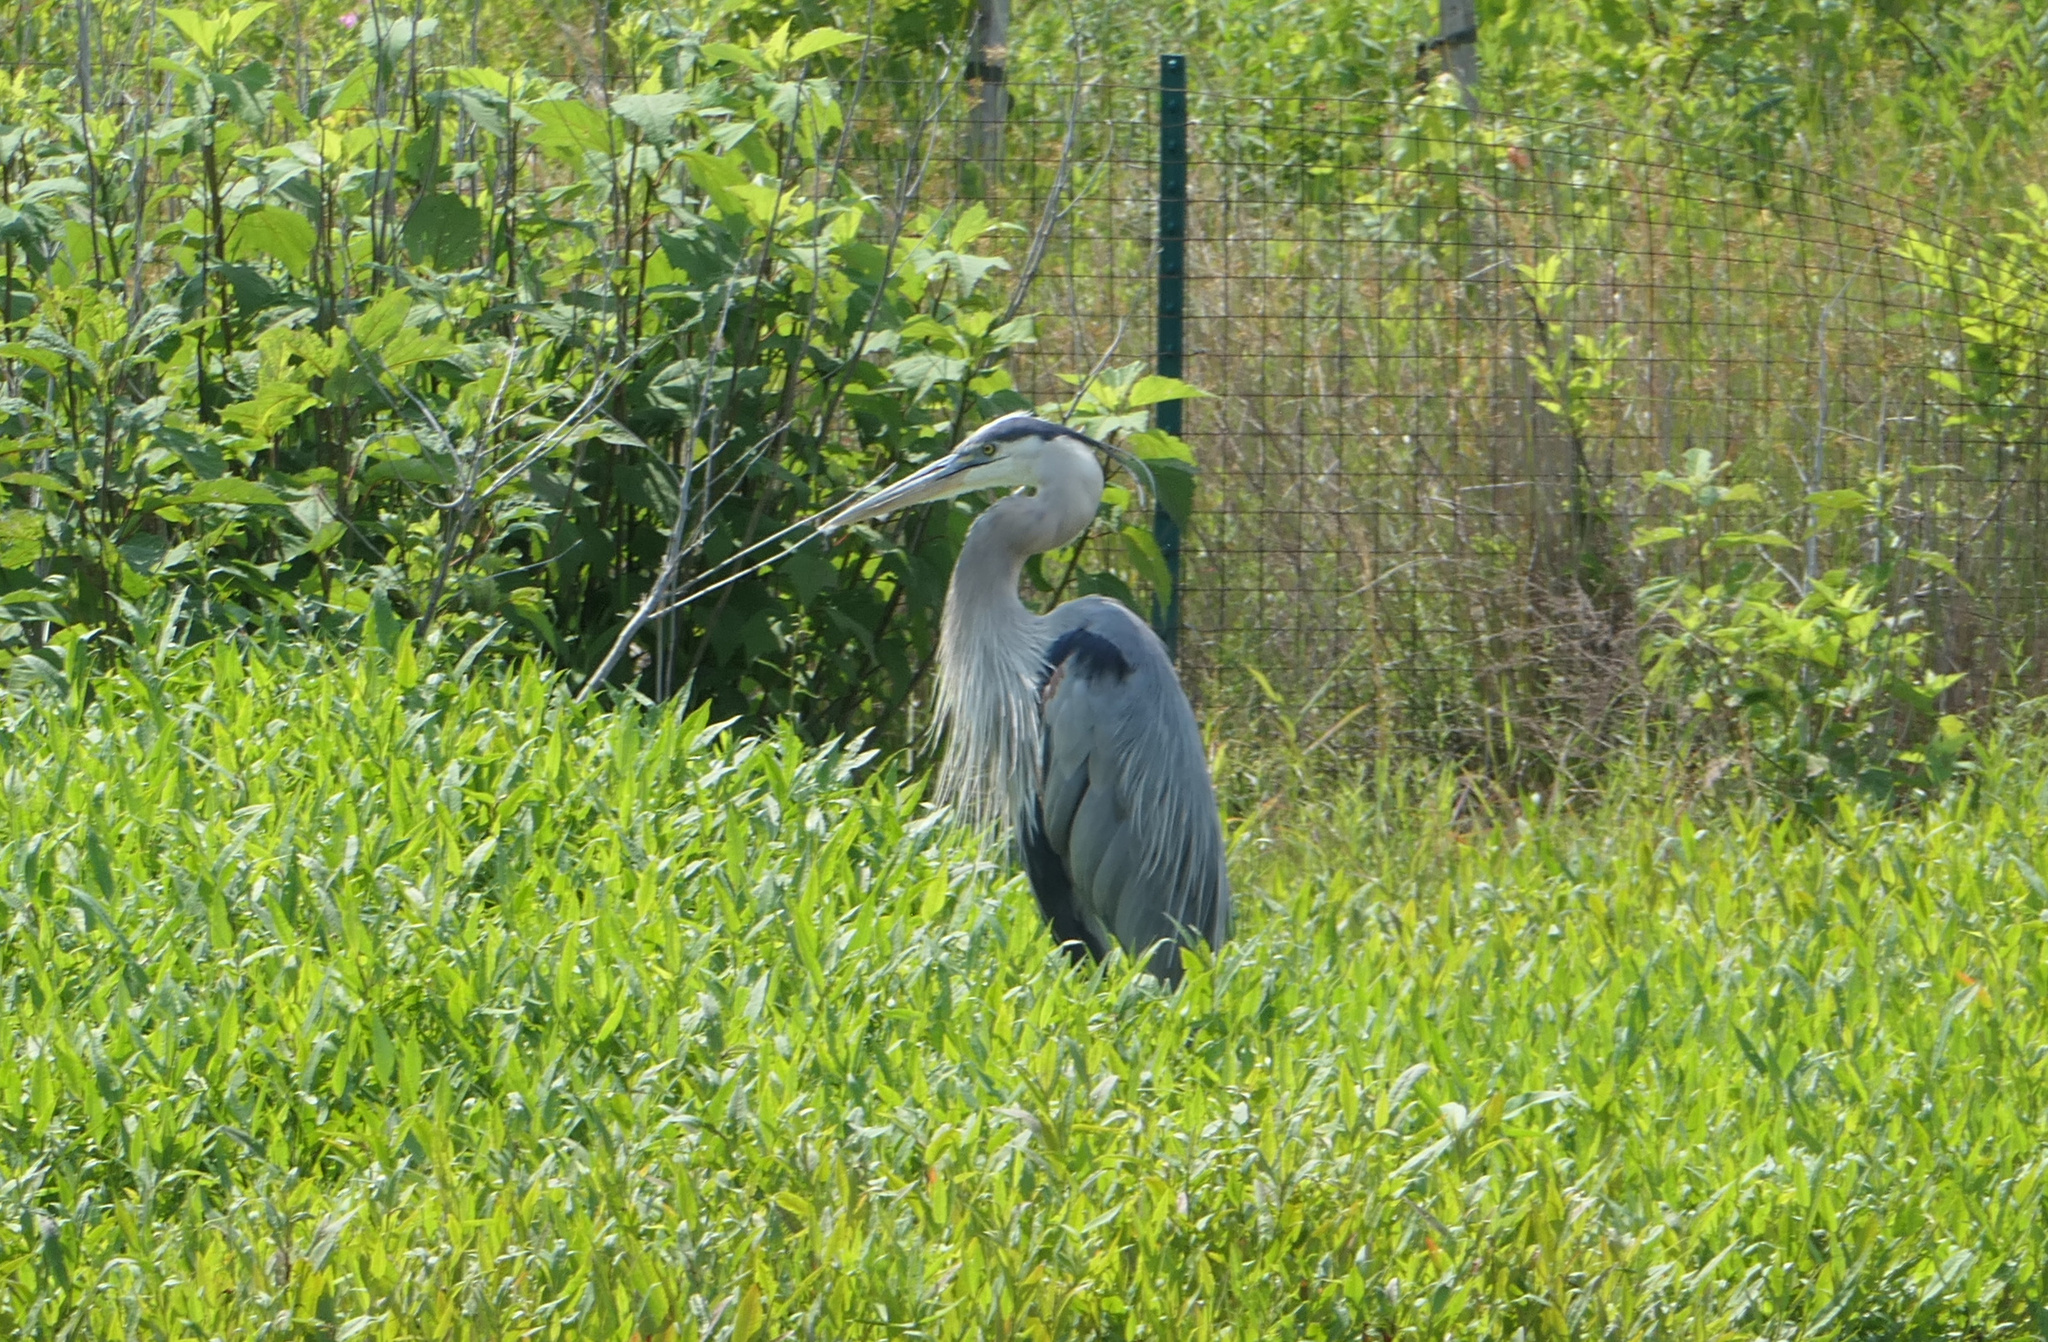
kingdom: Animalia
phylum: Chordata
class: Aves
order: Pelecaniformes
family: Ardeidae
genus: Ardea
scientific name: Ardea herodias
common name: Great blue heron
